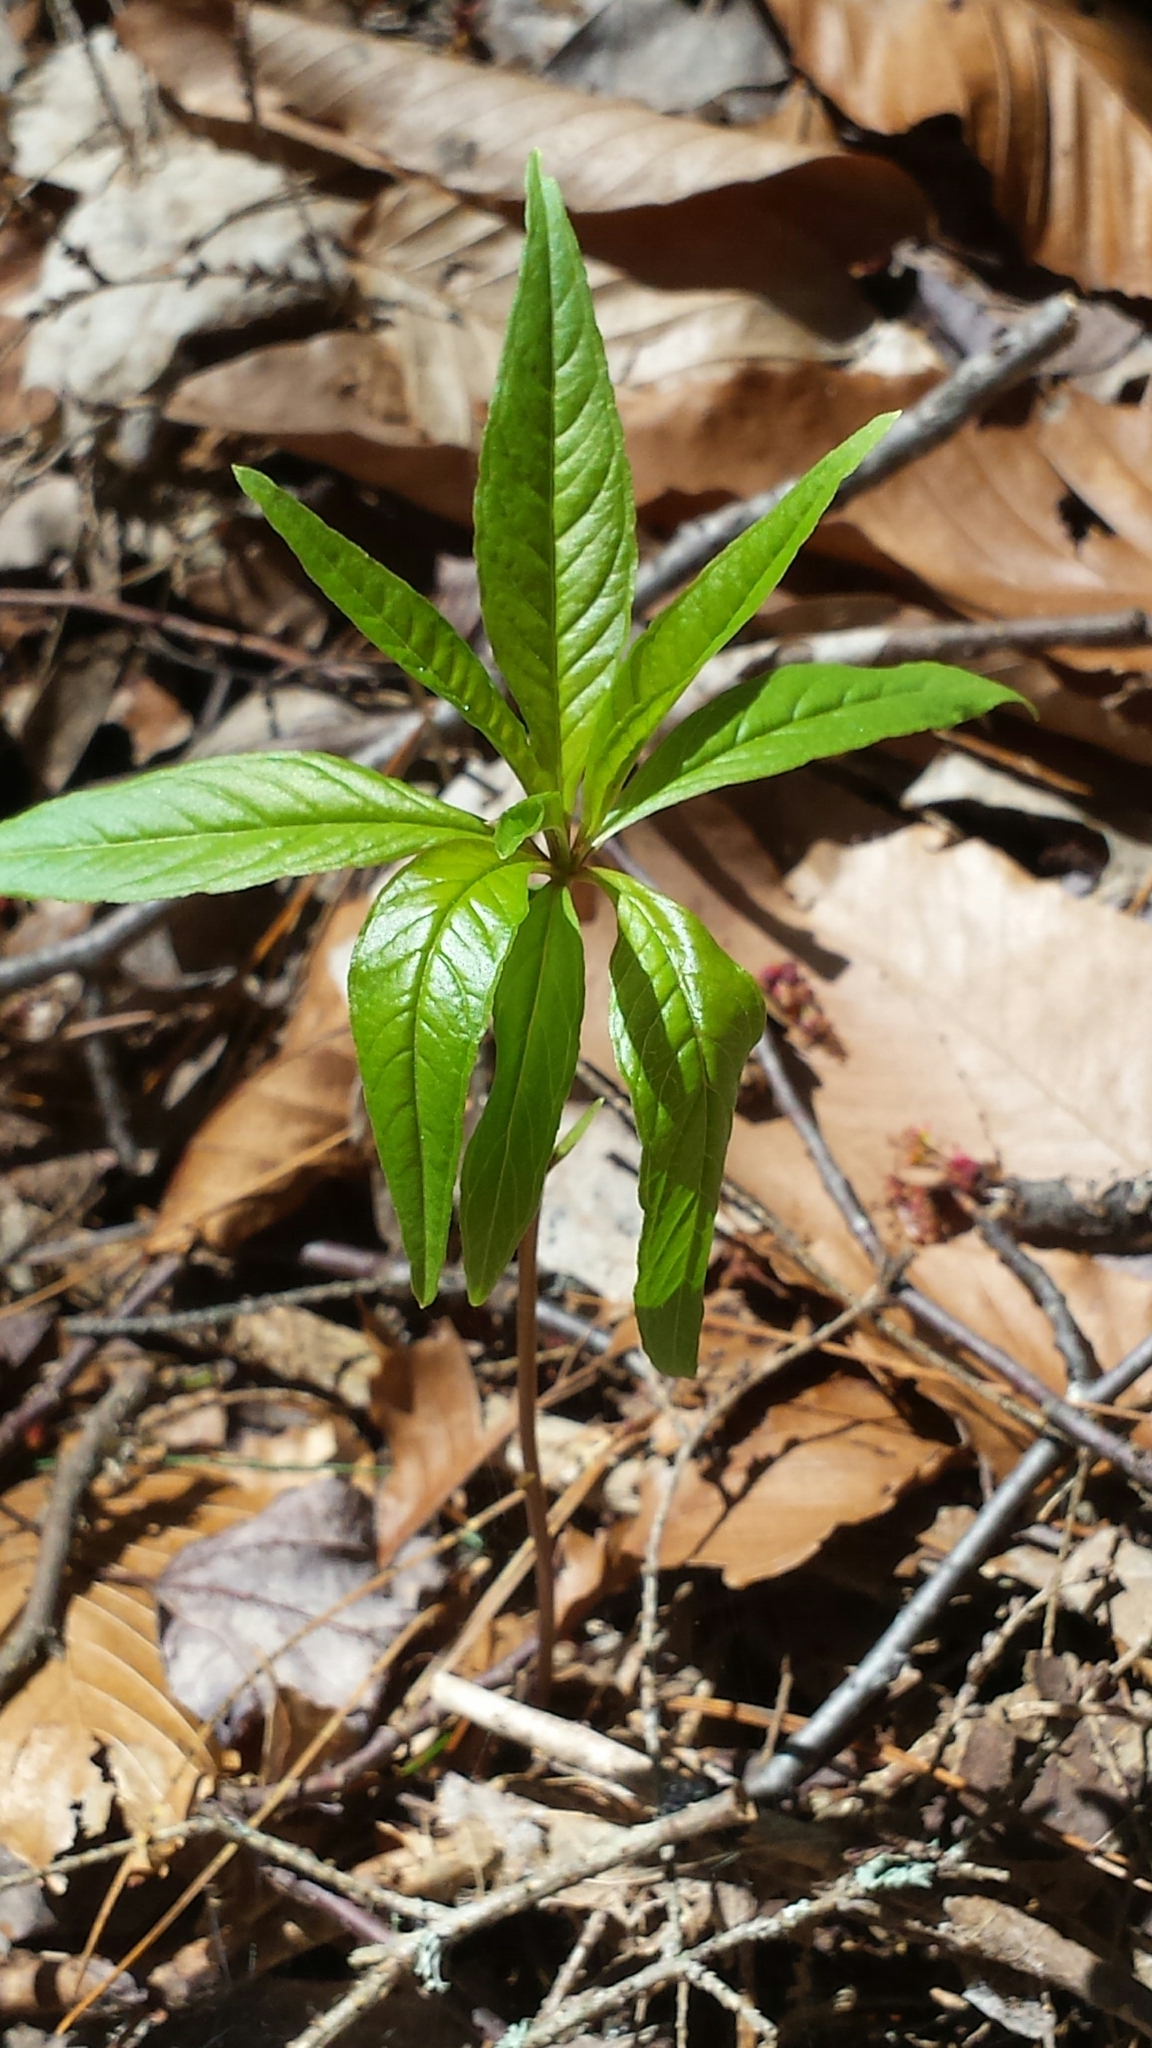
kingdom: Plantae
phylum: Tracheophyta
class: Magnoliopsida
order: Ericales
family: Primulaceae
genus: Lysimachia
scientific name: Lysimachia borealis
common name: American starflower
